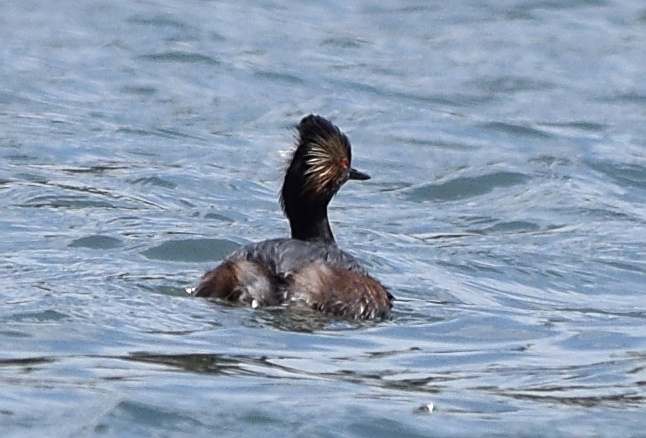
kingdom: Animalia
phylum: Chordata
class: Aves
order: Podicipediformes
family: Podicipedidae
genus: Podiceps
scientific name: Podiceps nigricollis
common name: Black-necked grebe
